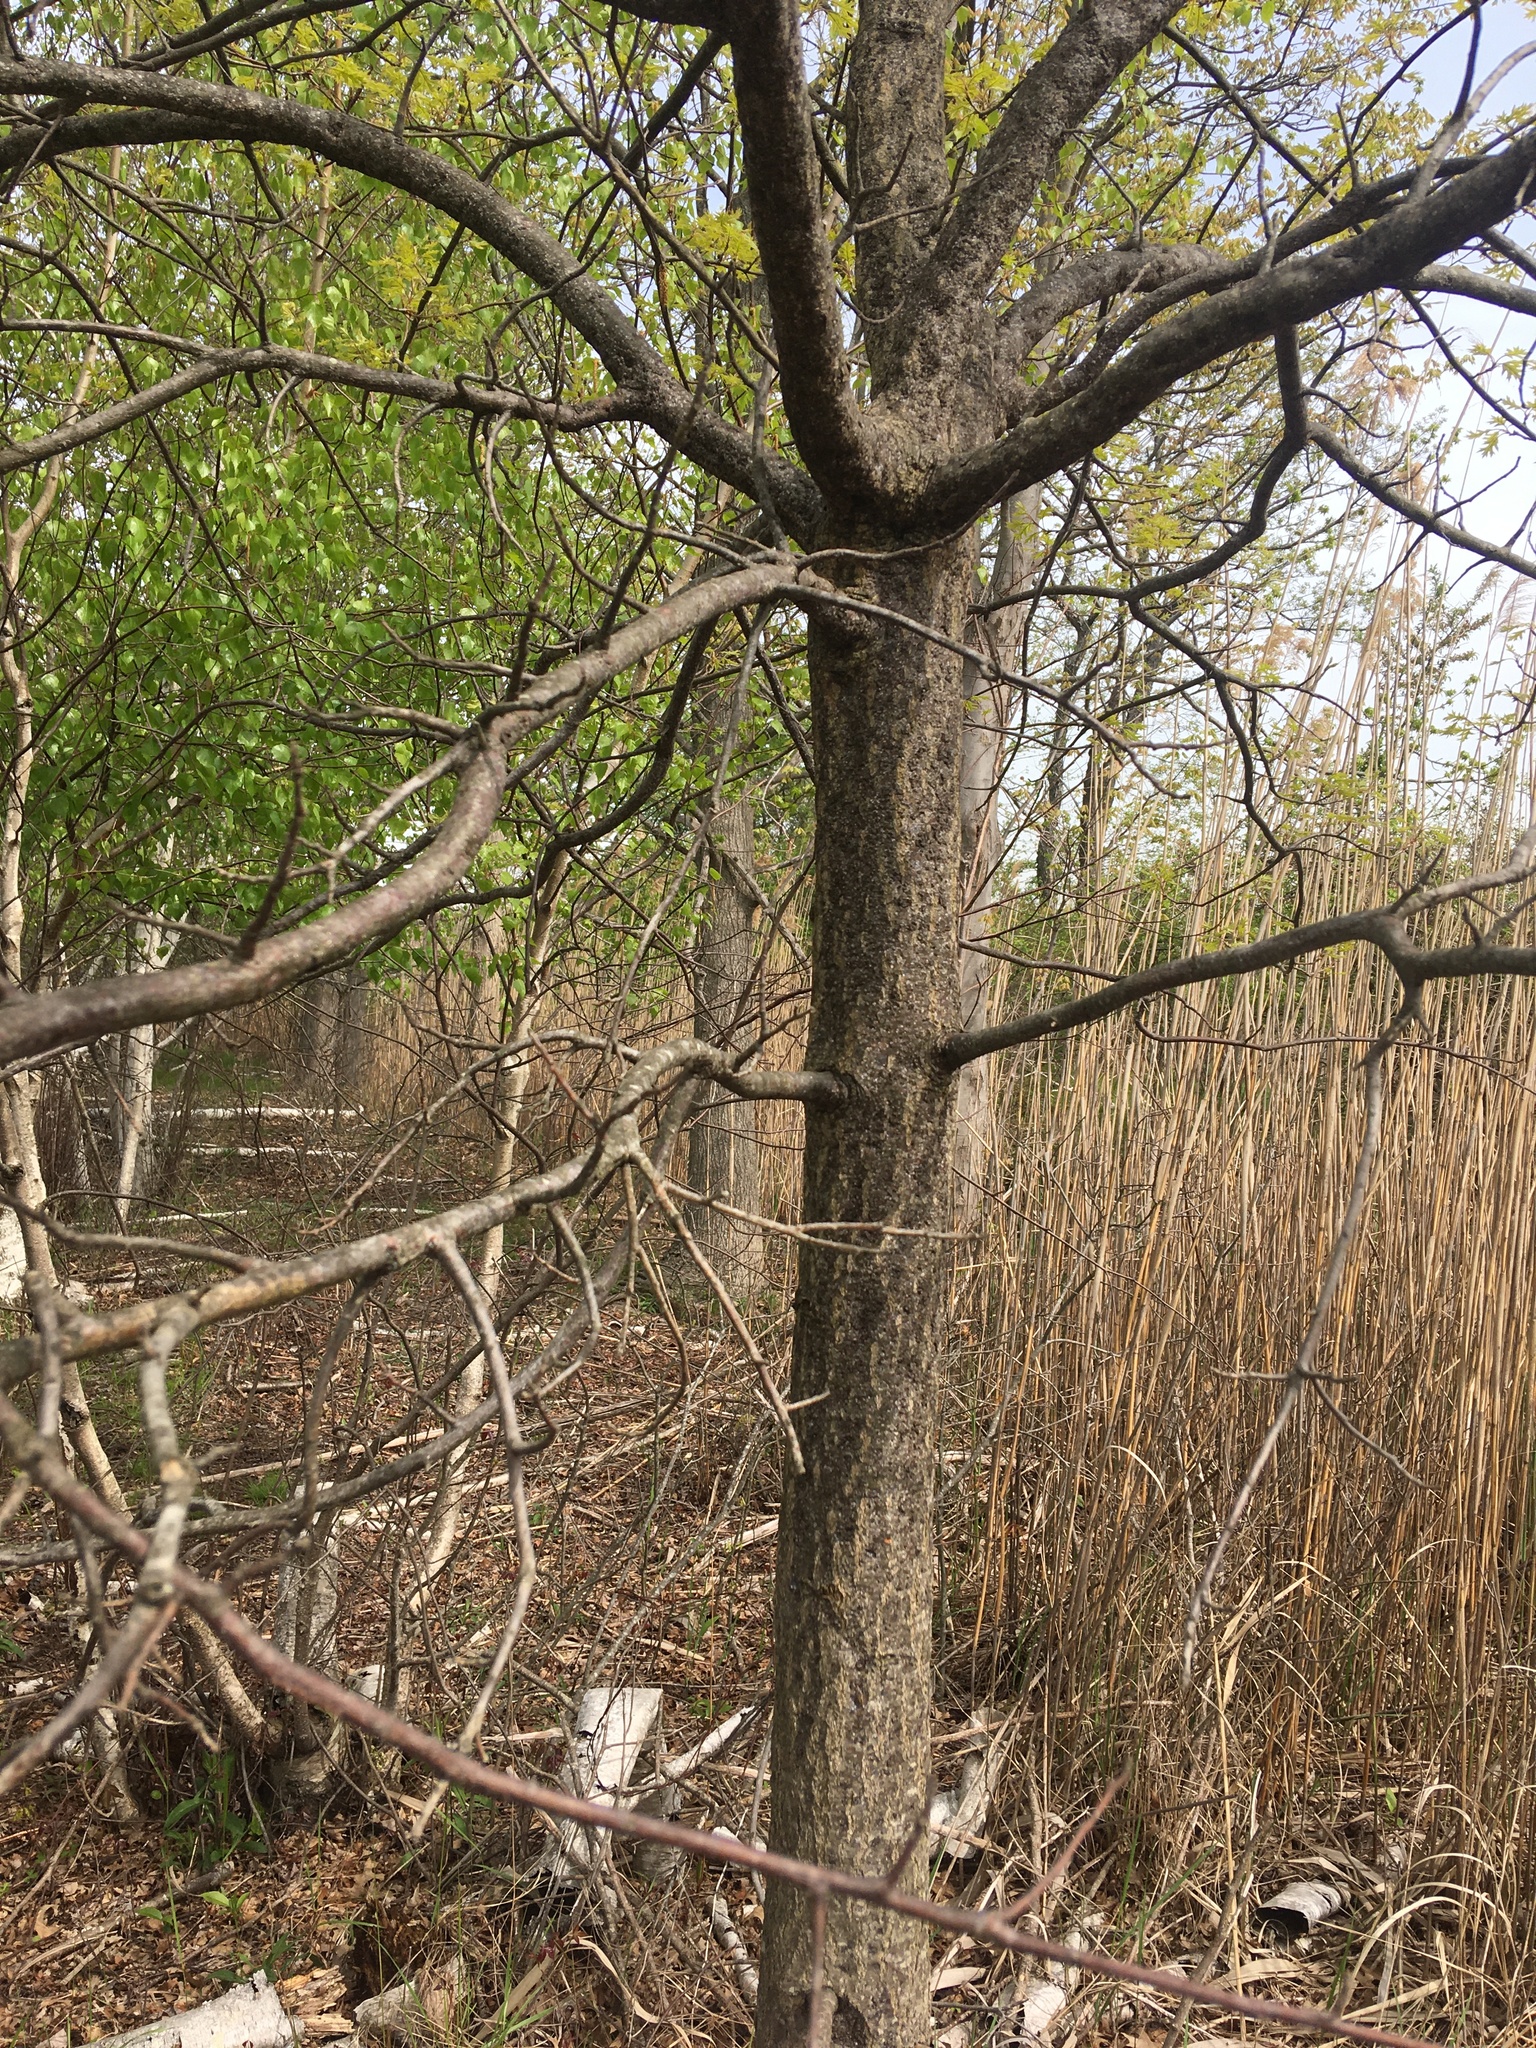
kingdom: Plantae
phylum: Tracheophyta
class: Magnoliopsida
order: Fagales
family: Fagaceae
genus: Quercus
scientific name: Quercus palustris
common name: Pin oak
